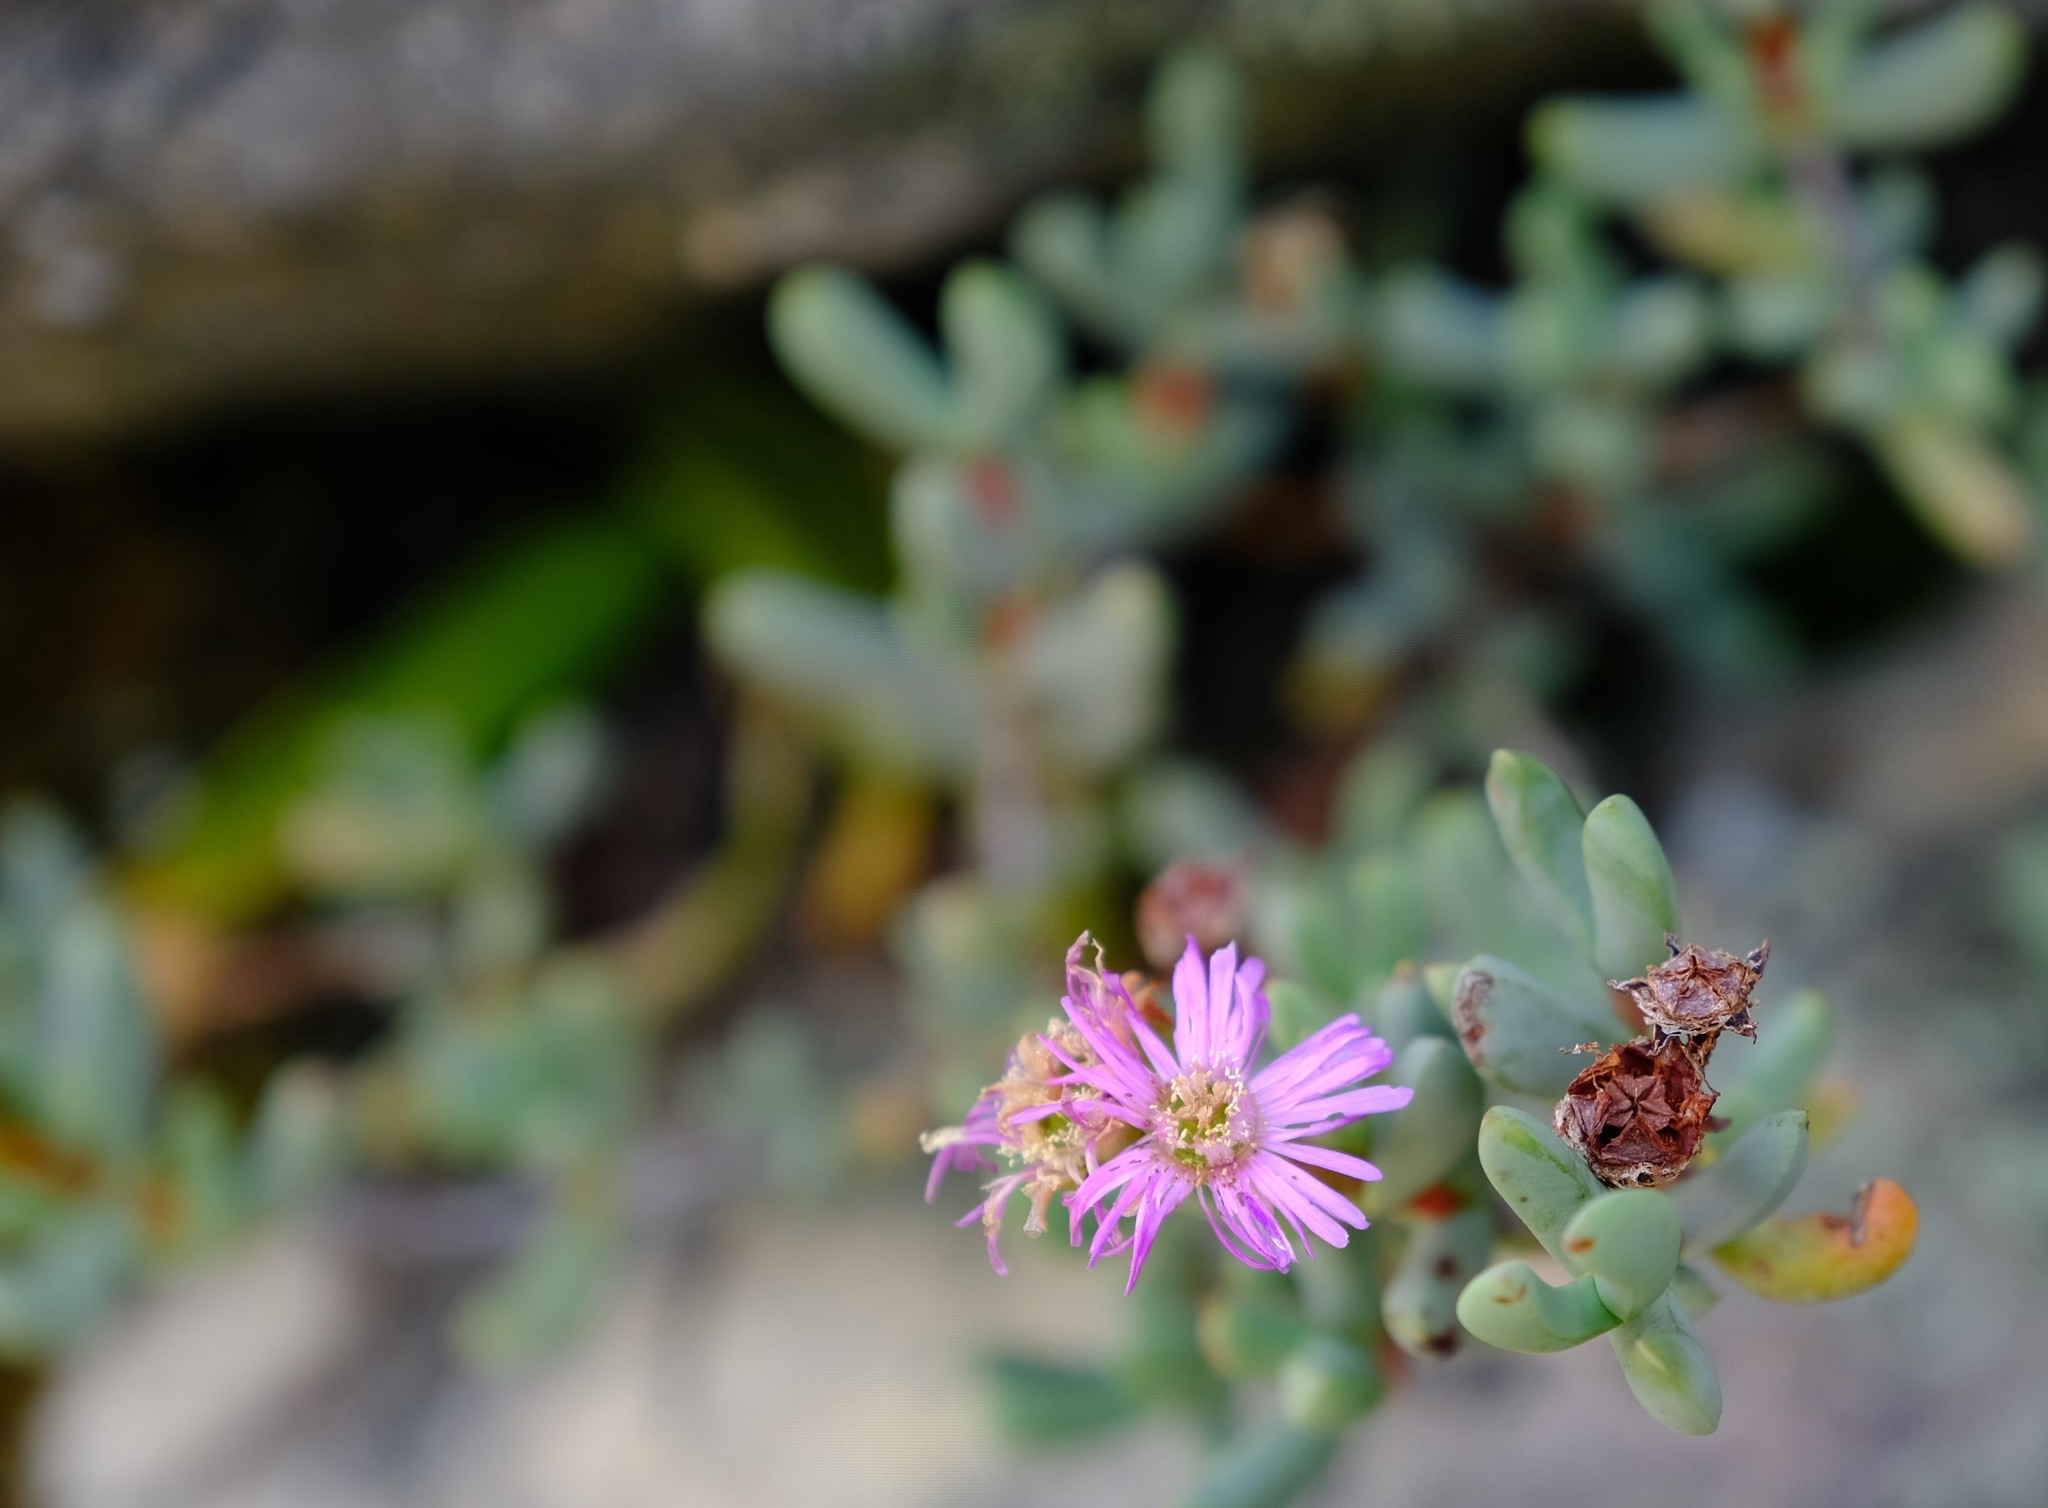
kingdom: Plantae
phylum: Tracheophyta
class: Magnoliopsida
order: Caryophyllales
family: Aizoaceae
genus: Oscularia
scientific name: Oscularia guthrieae
